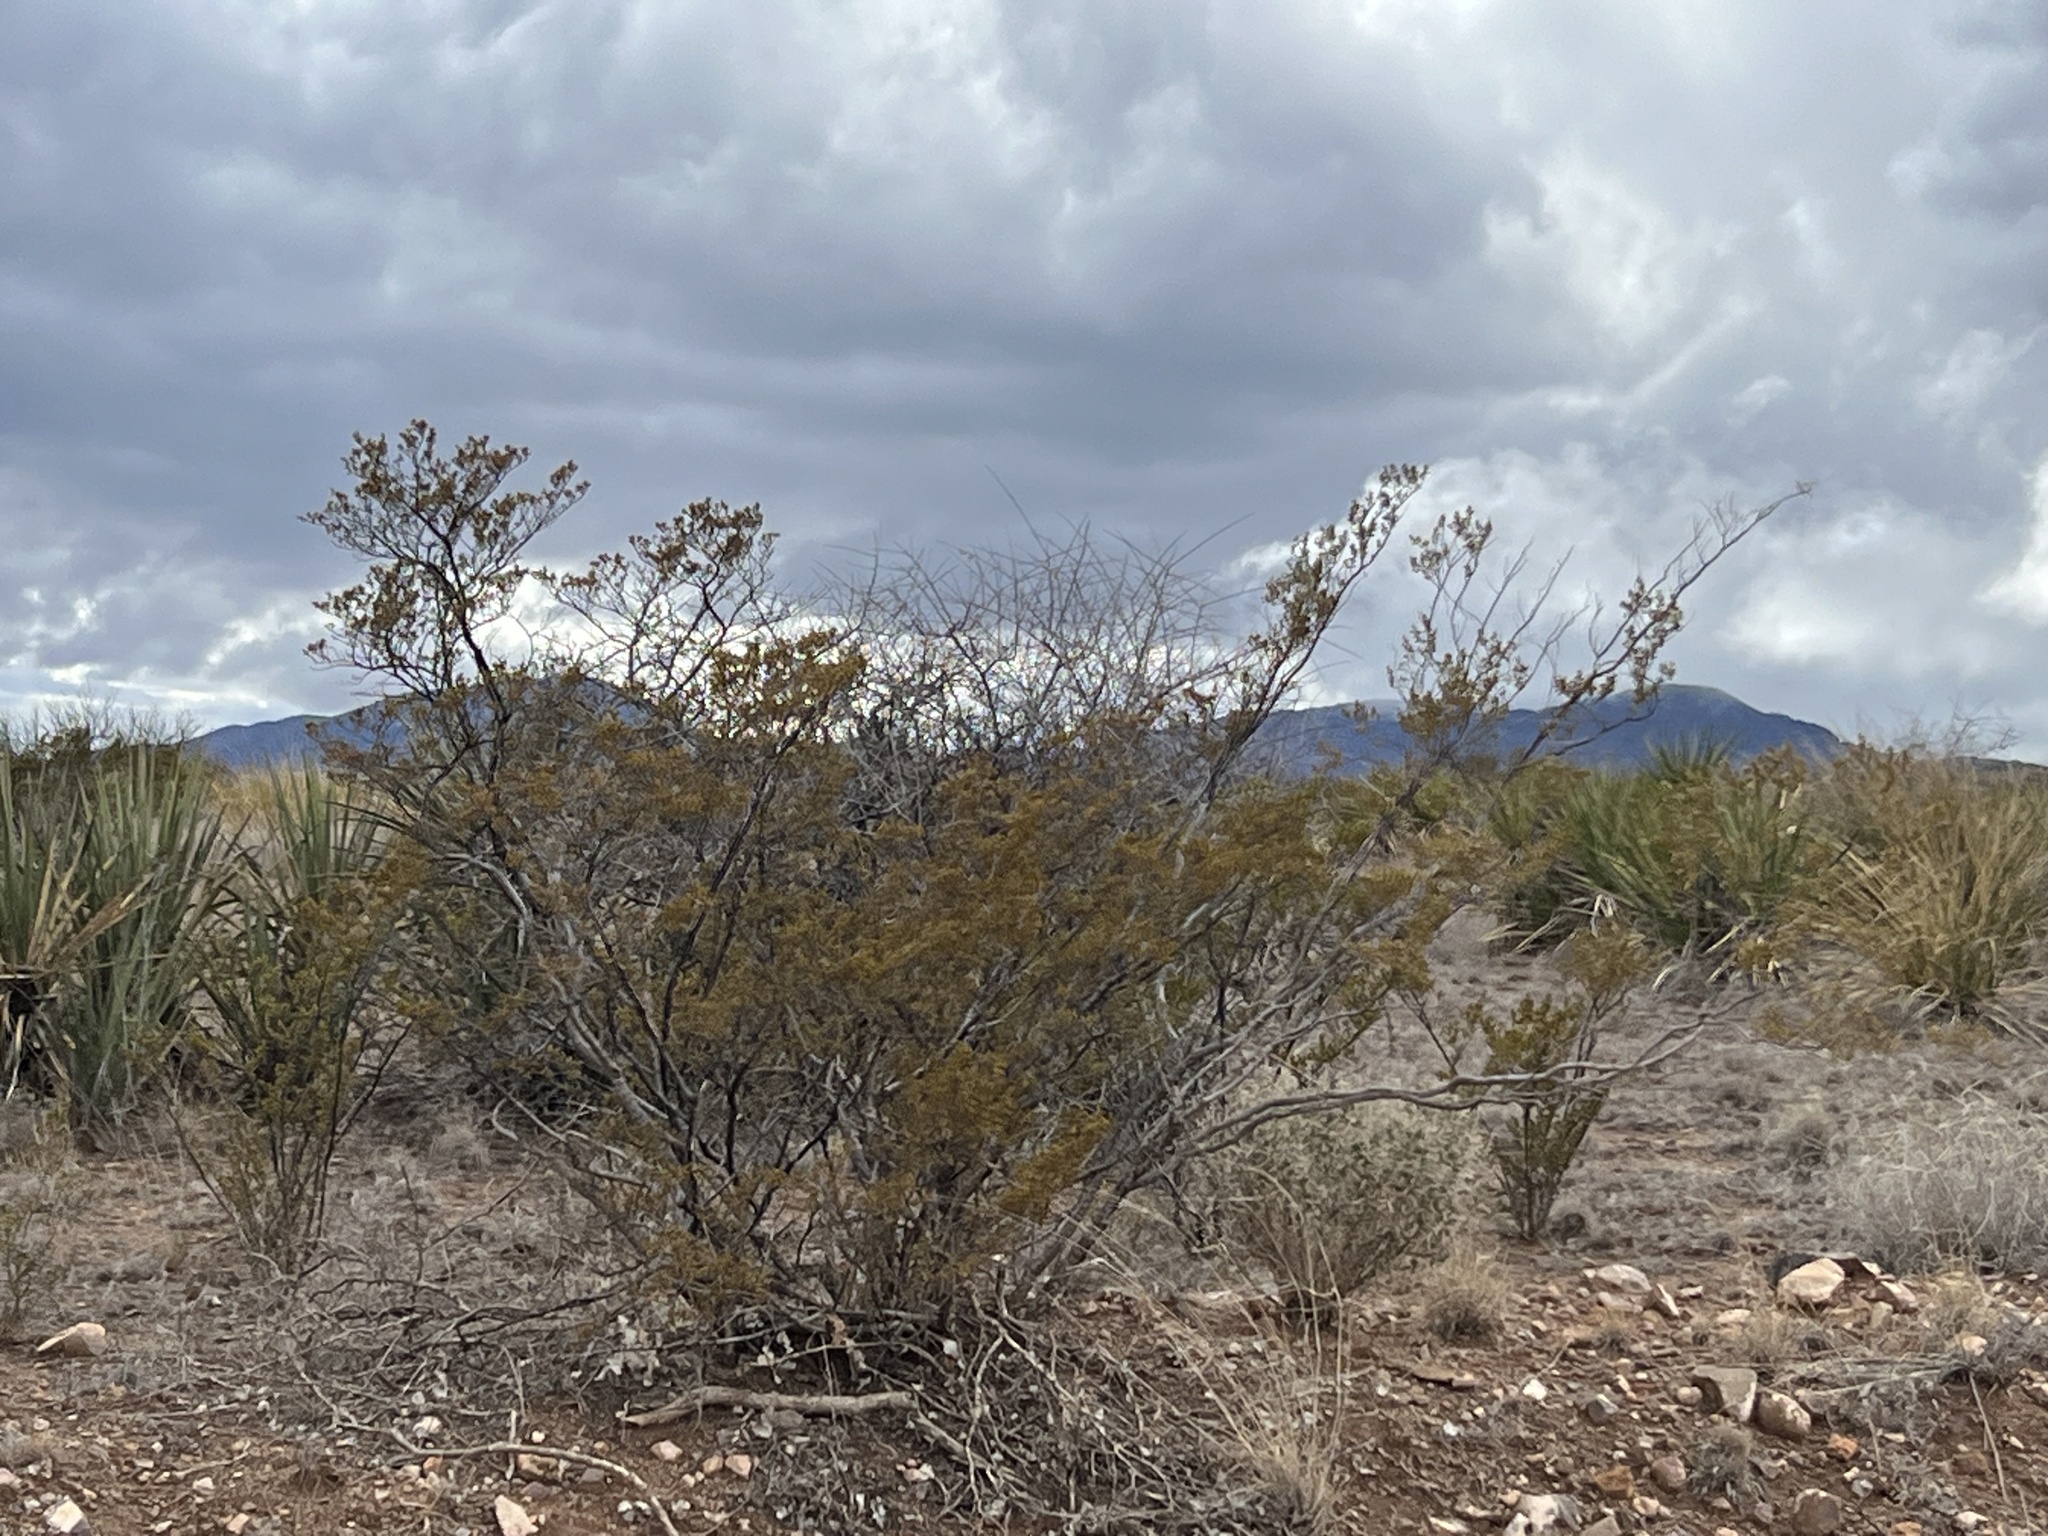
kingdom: Plantae
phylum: Tracheophyta
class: Magnoliopsida
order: Zygophyllales
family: Zygophyllaceae
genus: Larrea
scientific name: Larrea tridentata
